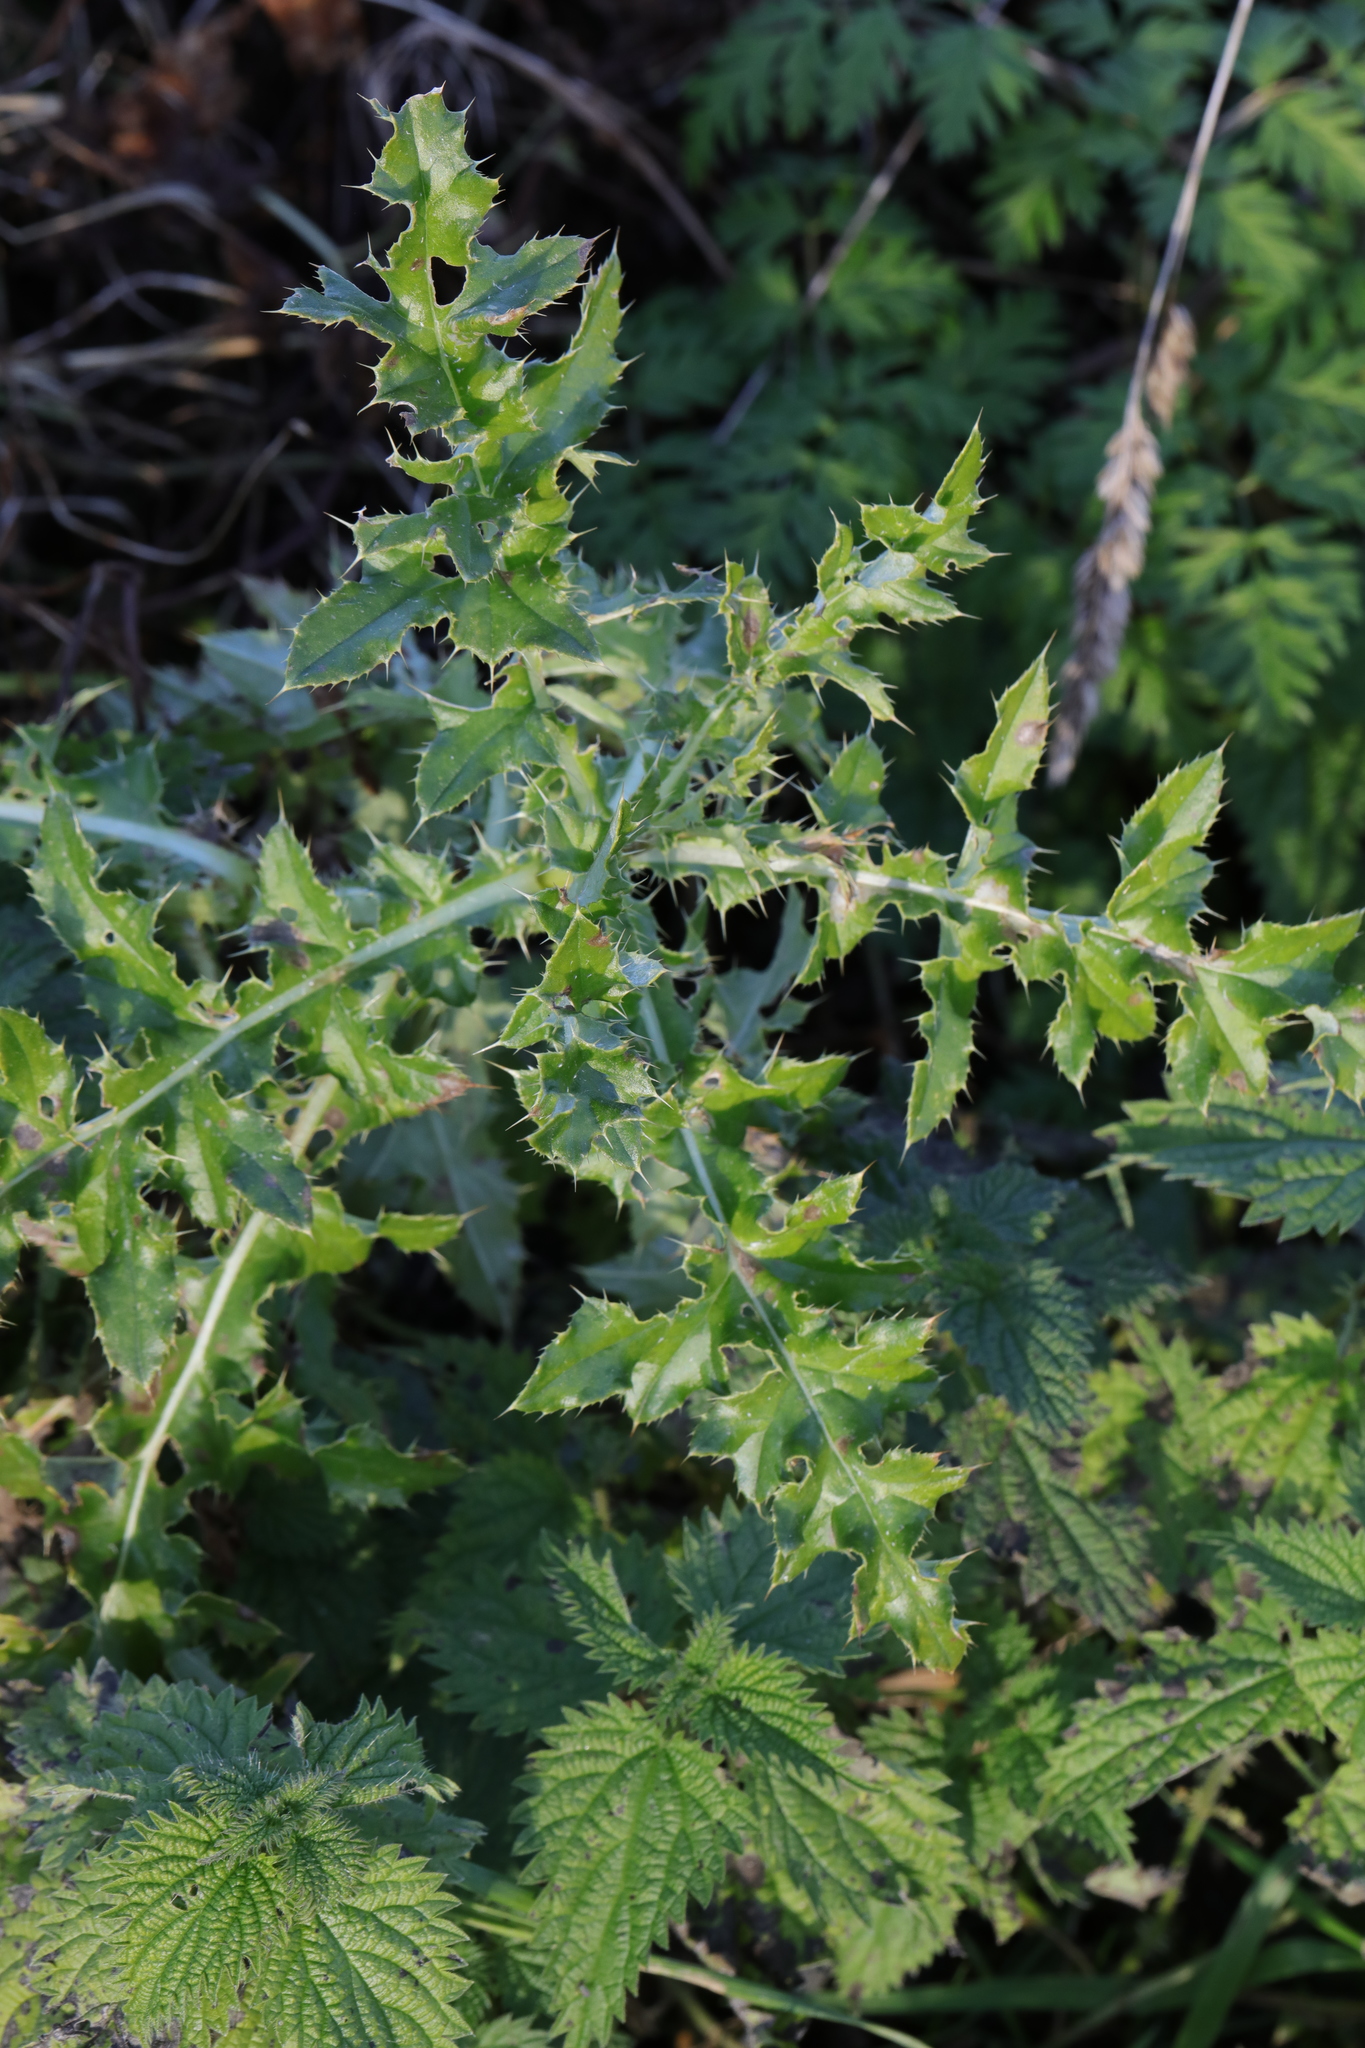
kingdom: Plantae
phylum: Tracheophyta
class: Magnoliopsida
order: Asterales
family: Asteraceae
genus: Cirsium
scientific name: Cirsium arvense
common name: Creeping thistle
